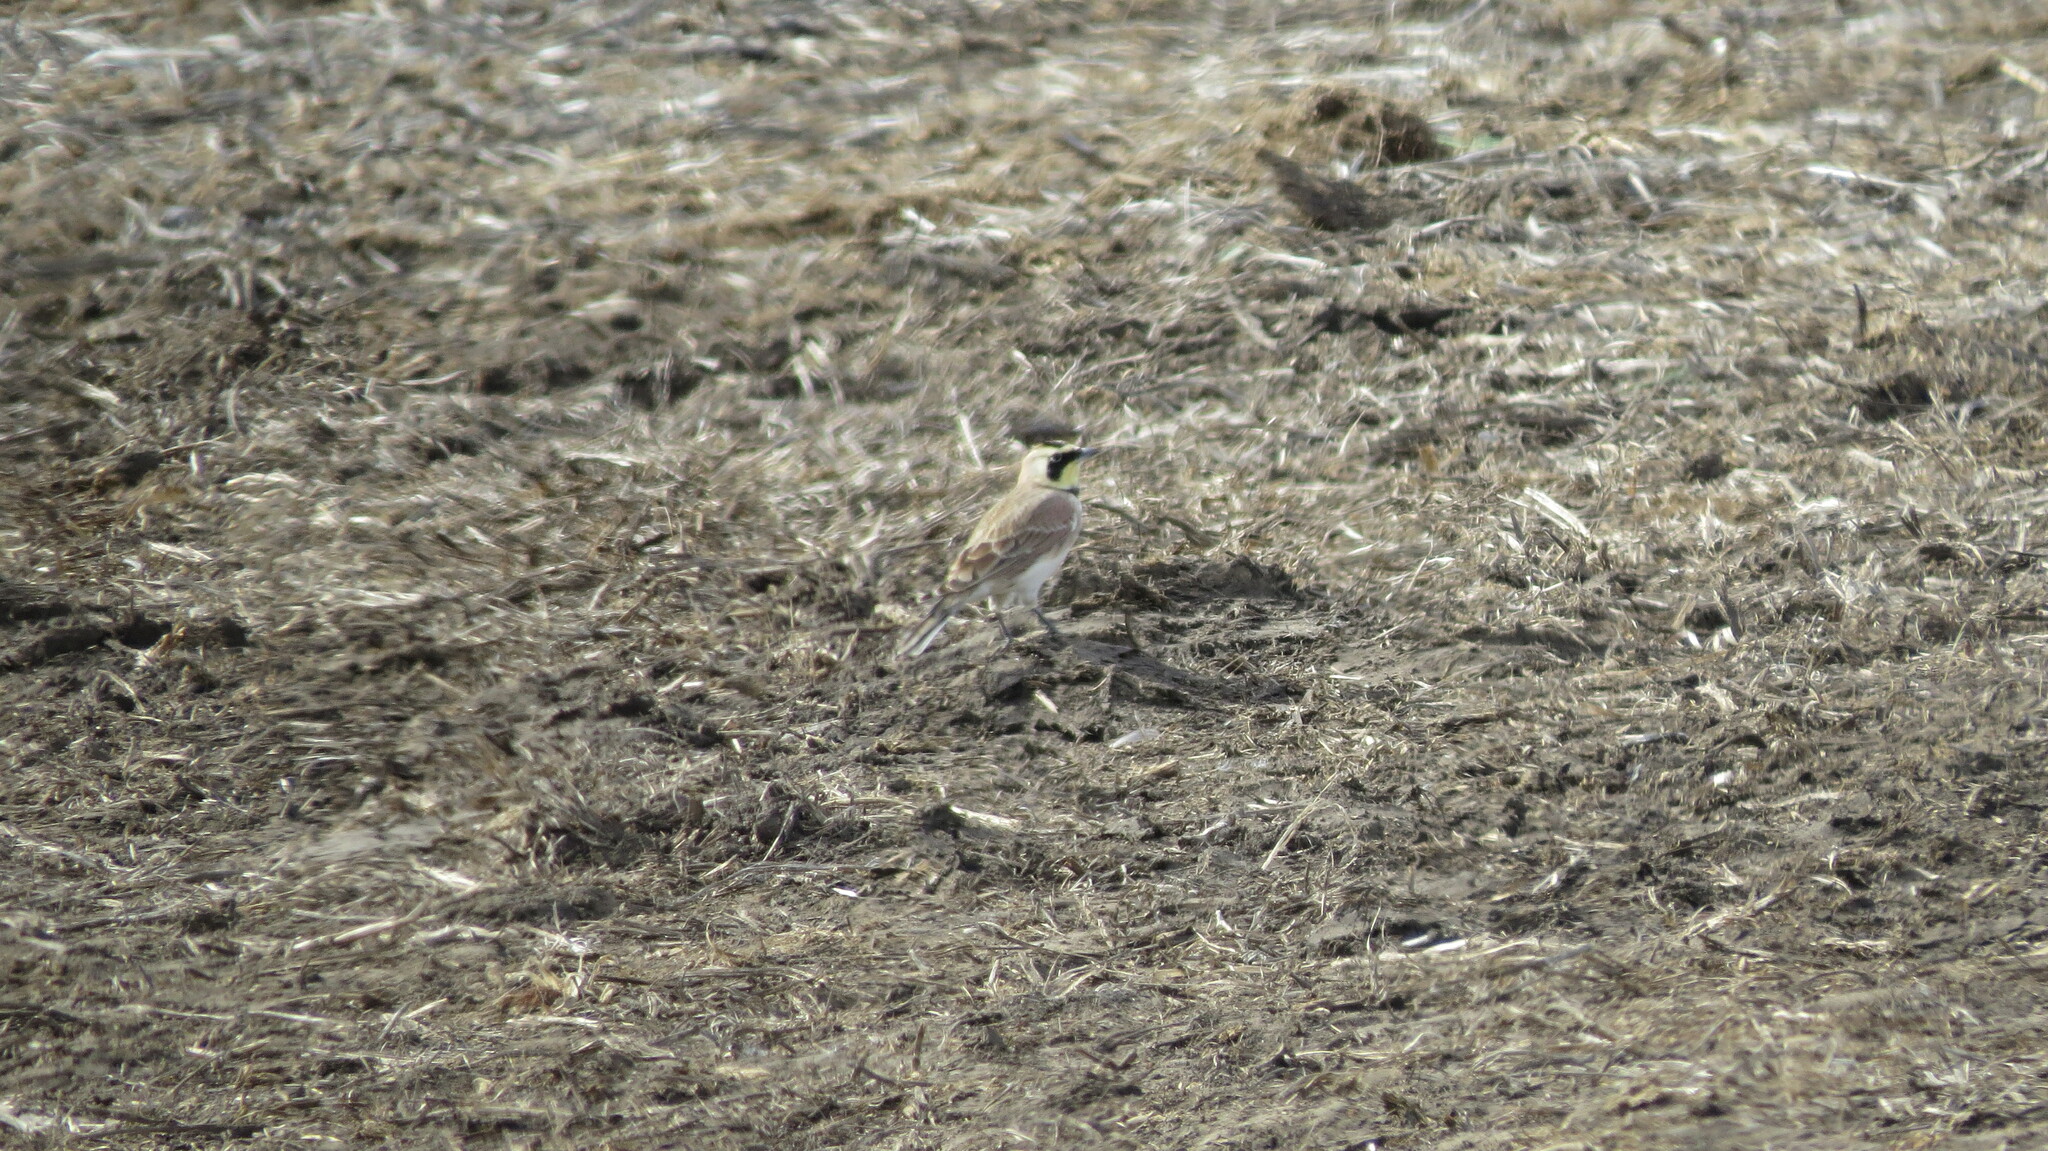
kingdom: Animalia
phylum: Chordata
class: Aves
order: Passeriformes
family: Alaudidae
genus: Eremophila
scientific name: Eremophila alpestris
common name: Horned lark
